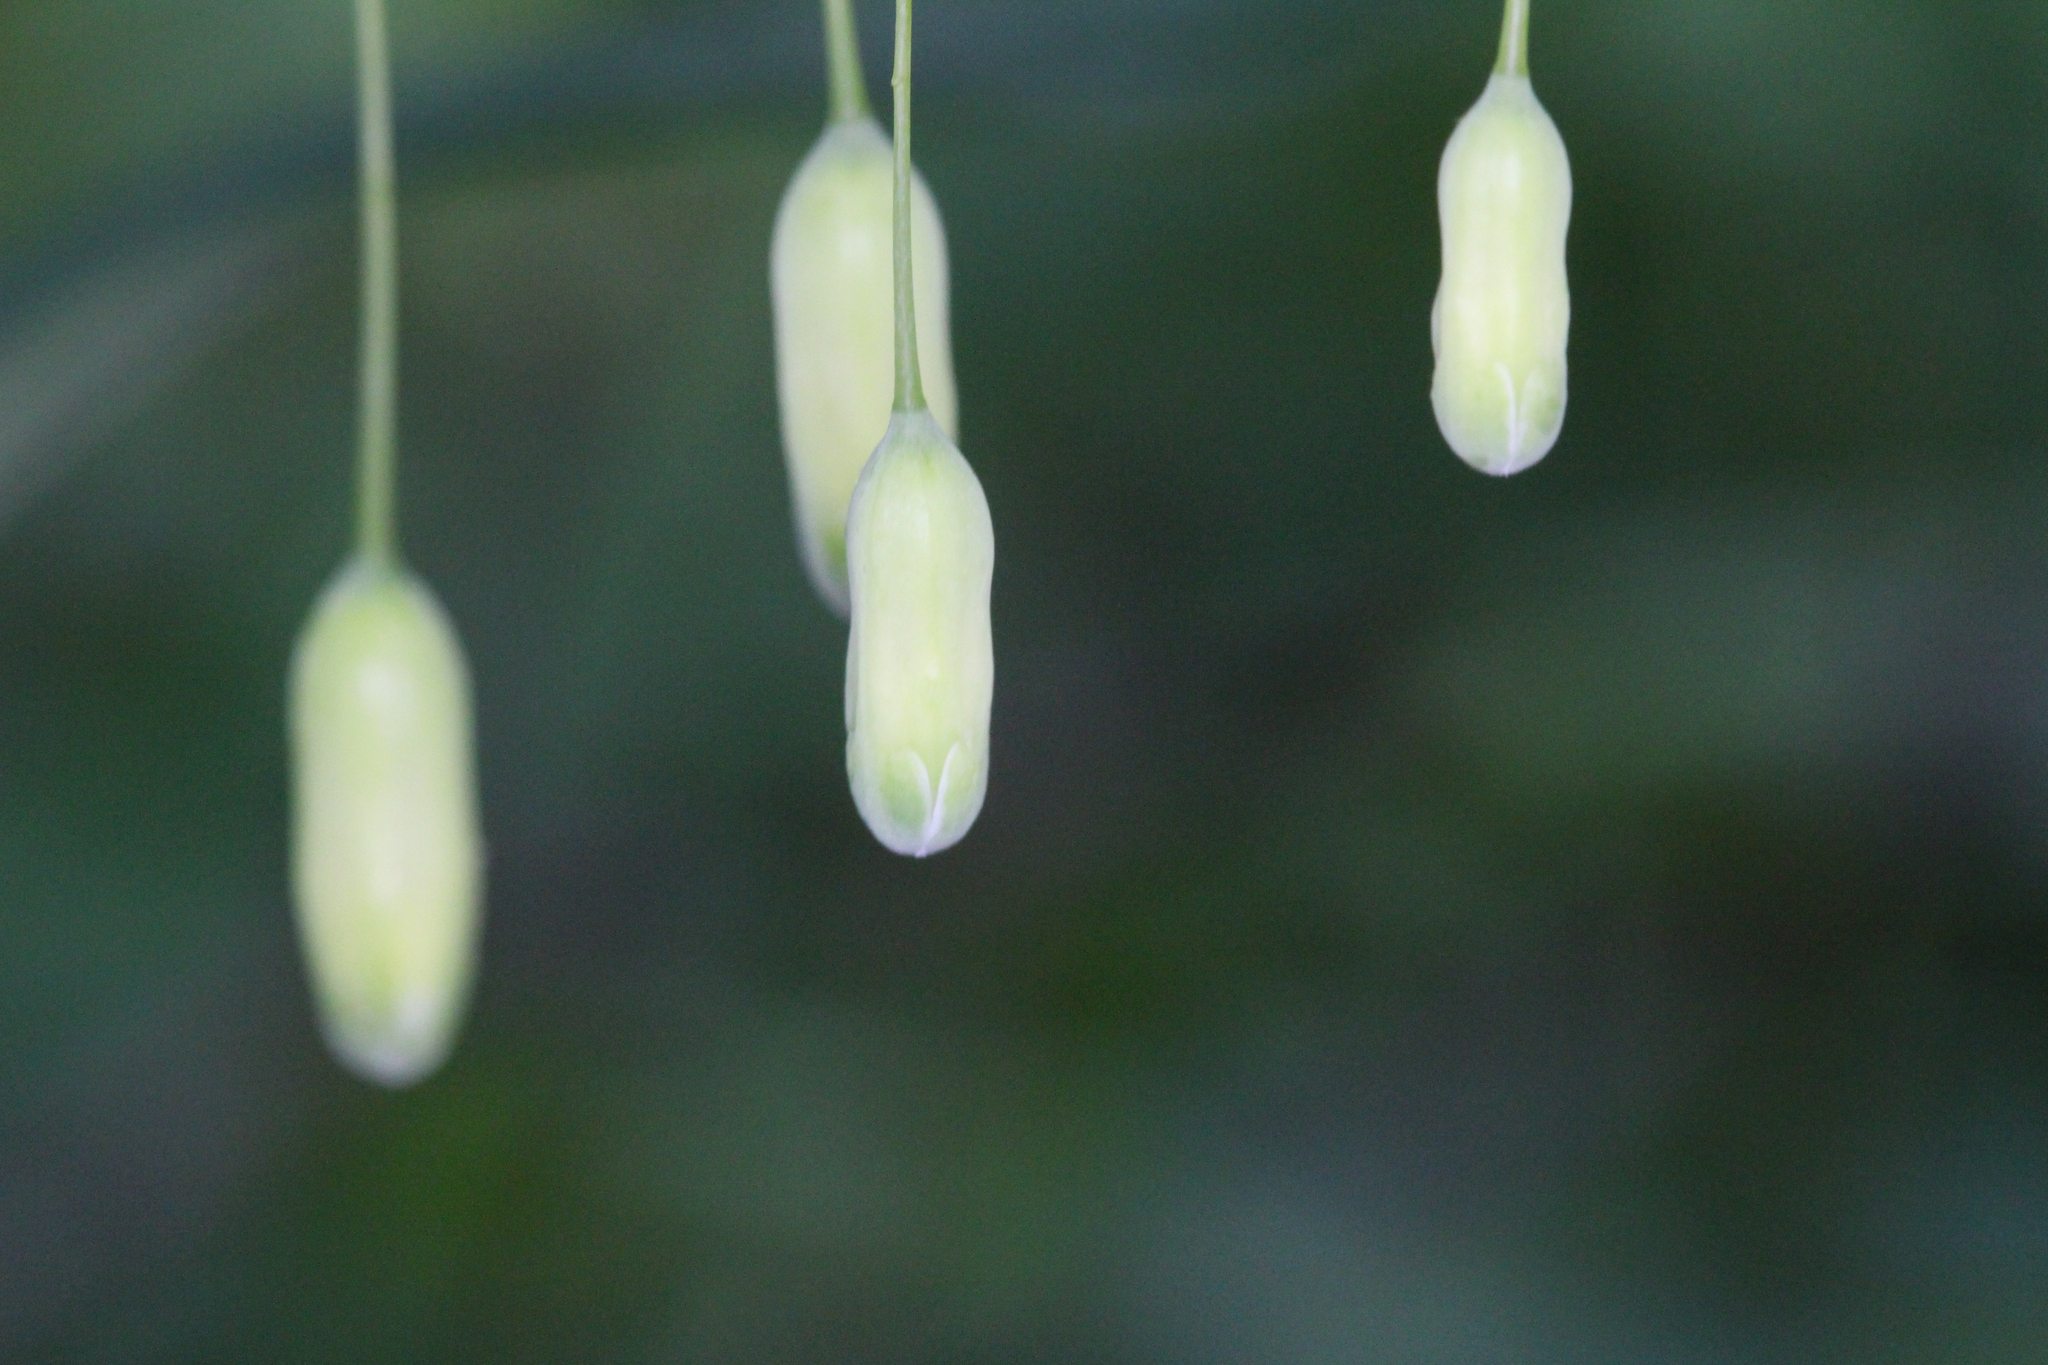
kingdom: Plantae
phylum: Tracheophyta
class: Liliopsida
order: Asparagales
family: Asparagaceae
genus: Polygonatum
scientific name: Polygonatum biflorum
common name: American solomon's-seal
